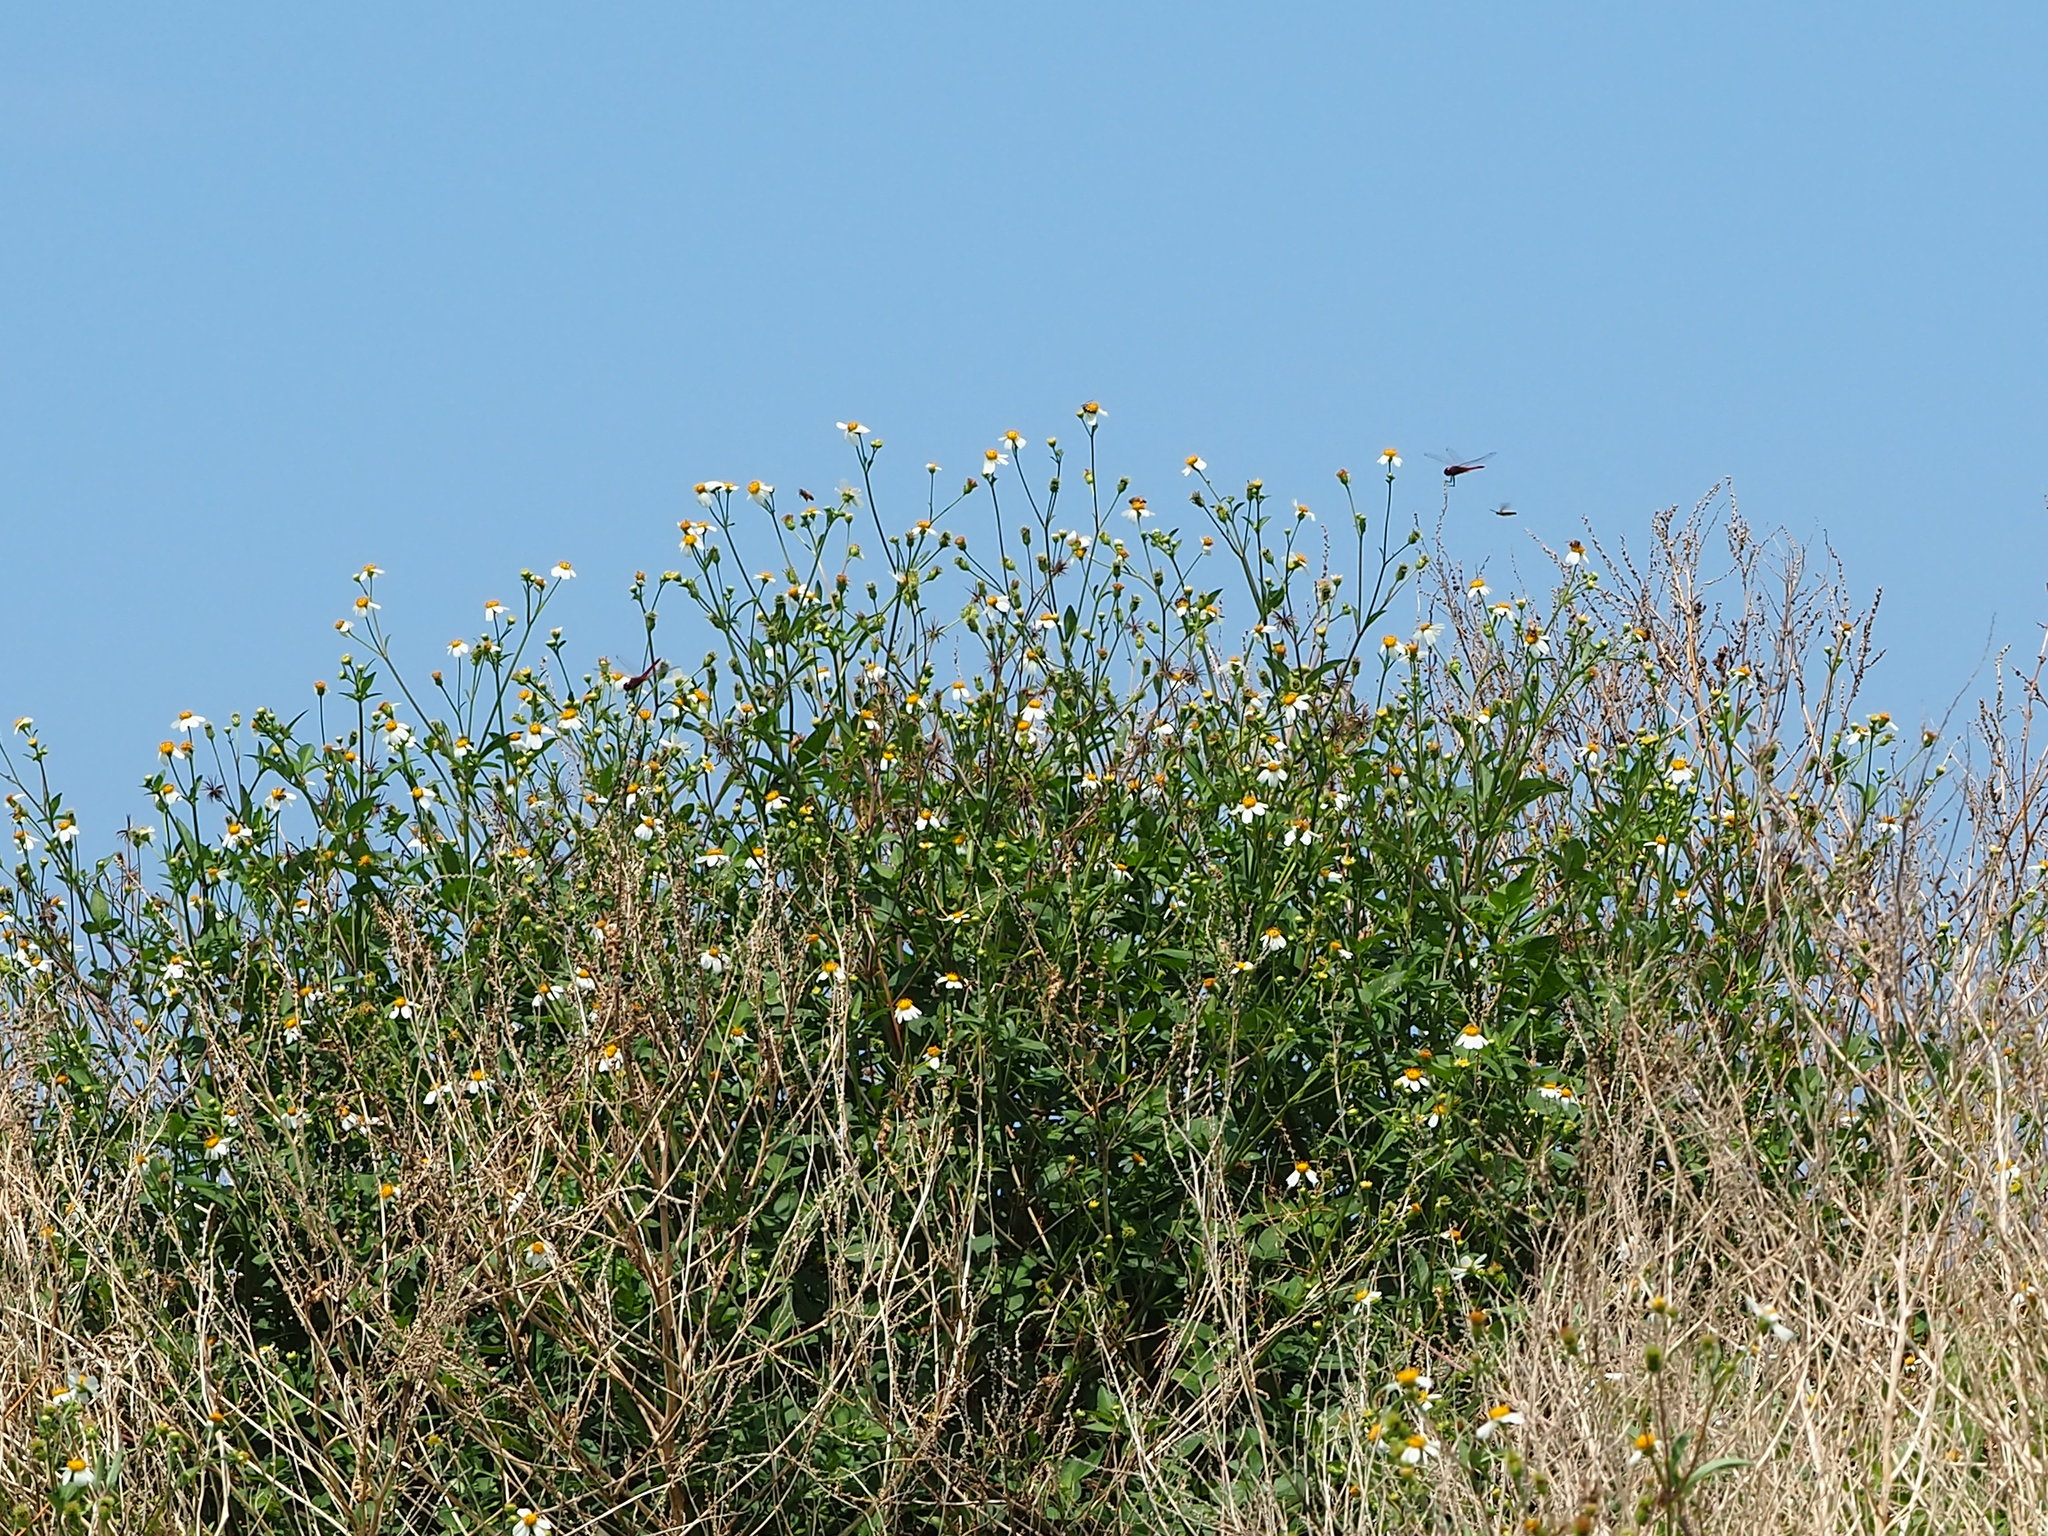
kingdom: Plantae
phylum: Tracheophyta
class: Magnoliopsida
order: Asterales
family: Asteraceae
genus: Bidens
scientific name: Bidens alba
